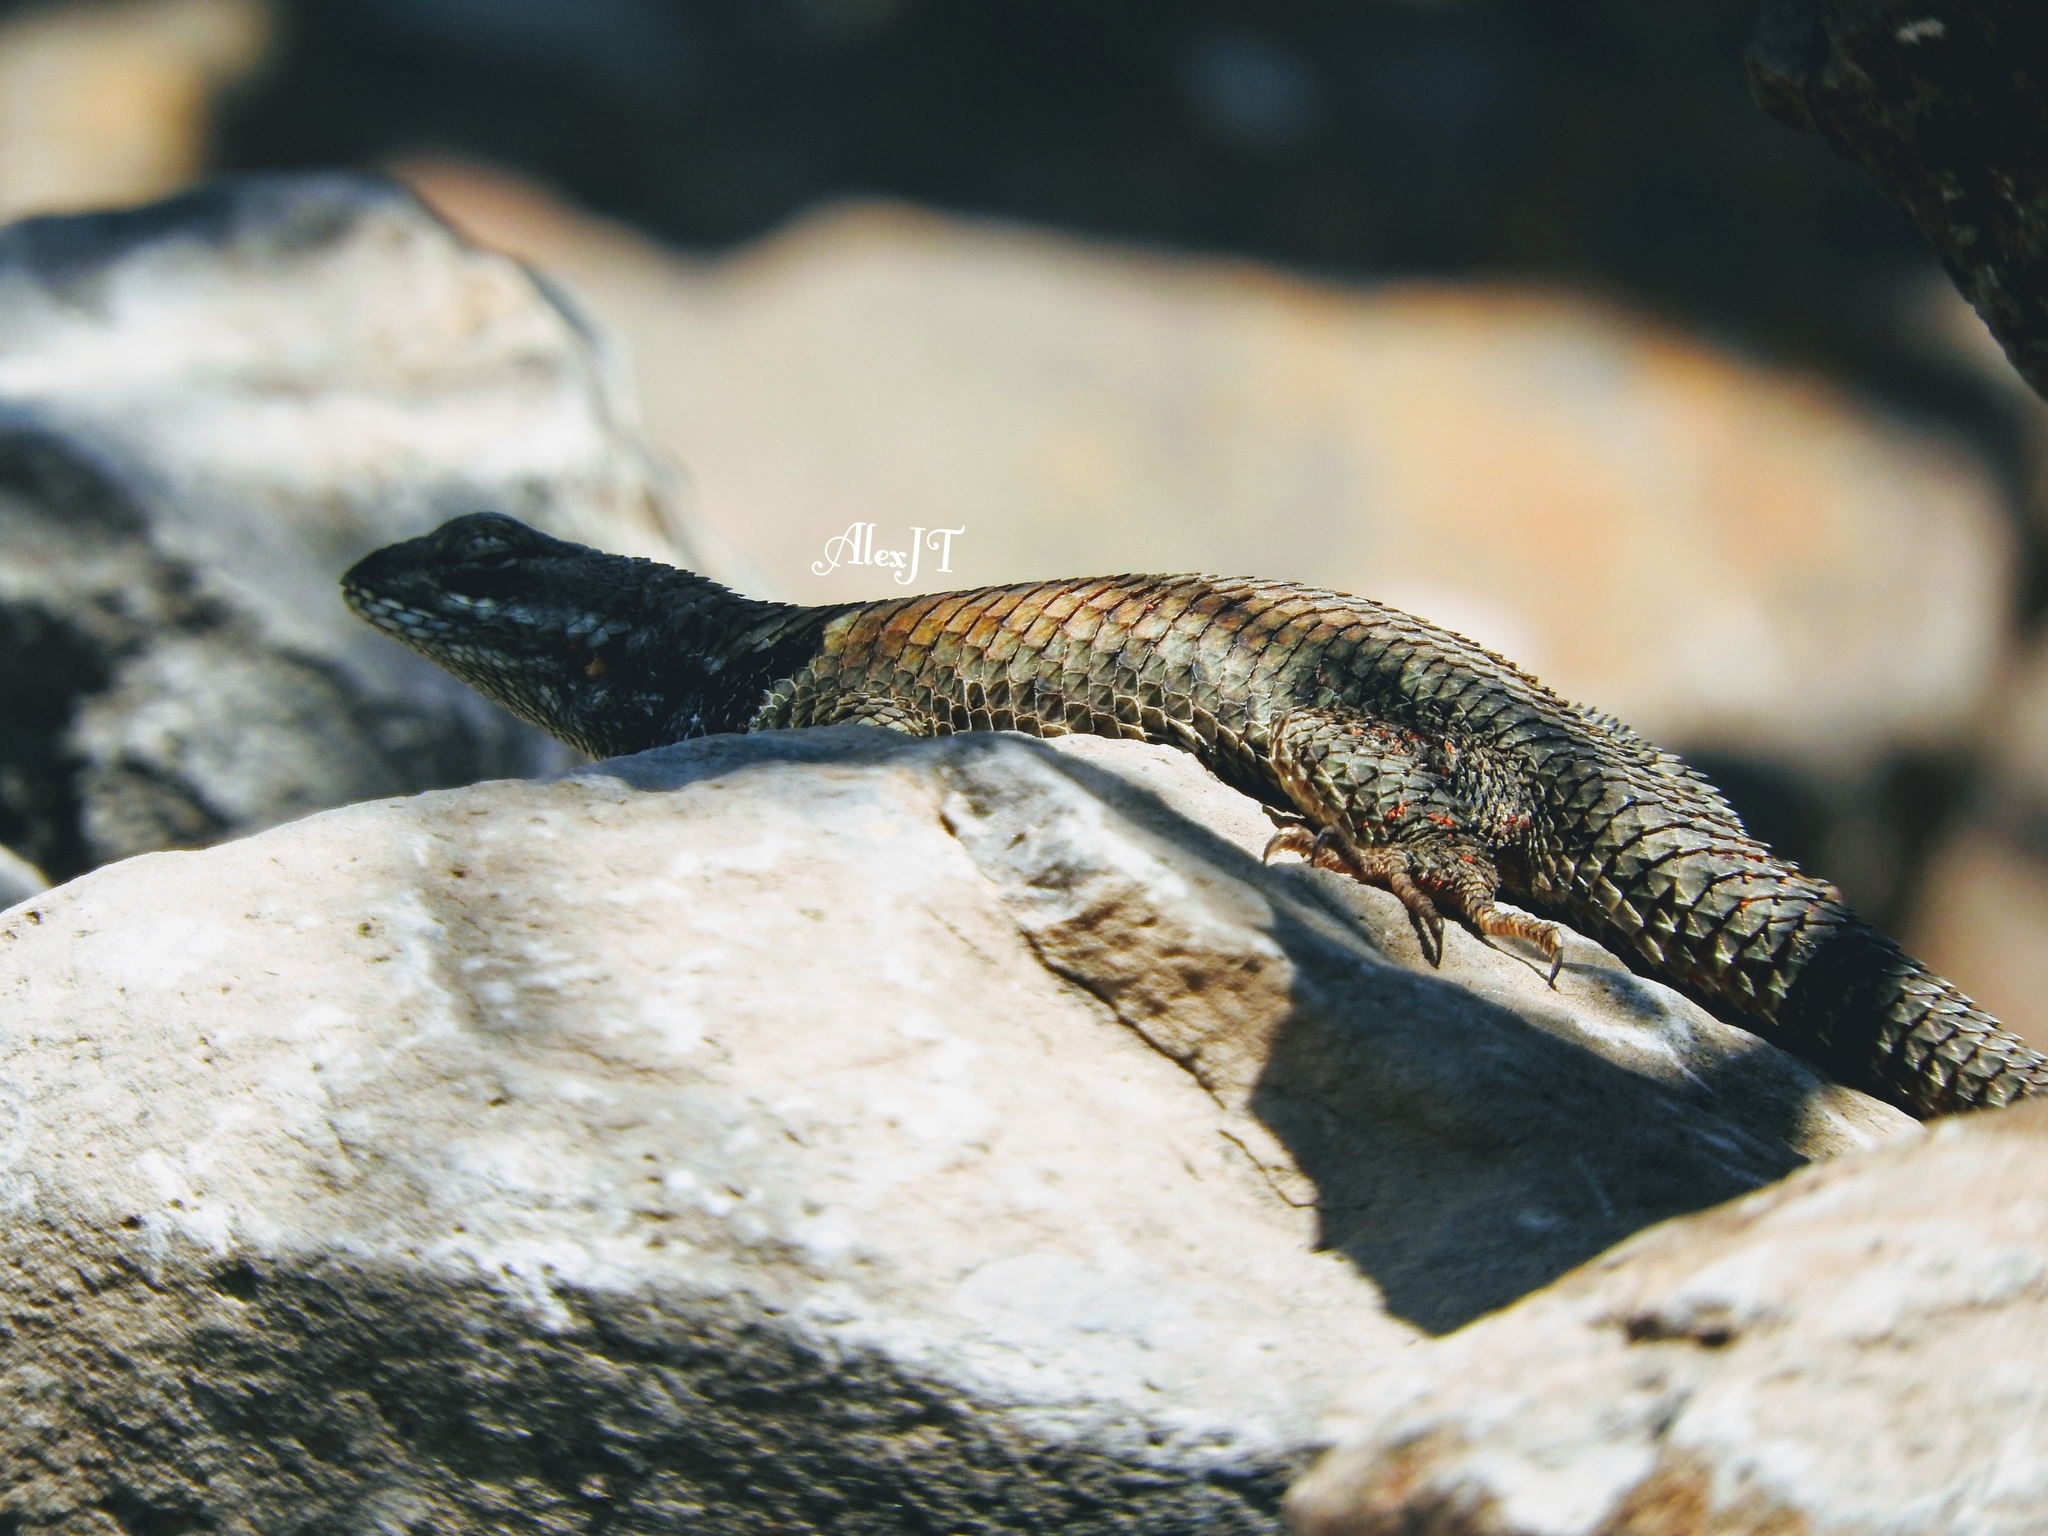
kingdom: Animalia
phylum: Chordata
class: Squamata
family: Phrynosomatidae
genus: Sceloporus
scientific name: Sceloporus torquatus
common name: Central plateau torquate lizard [melanogaster]
